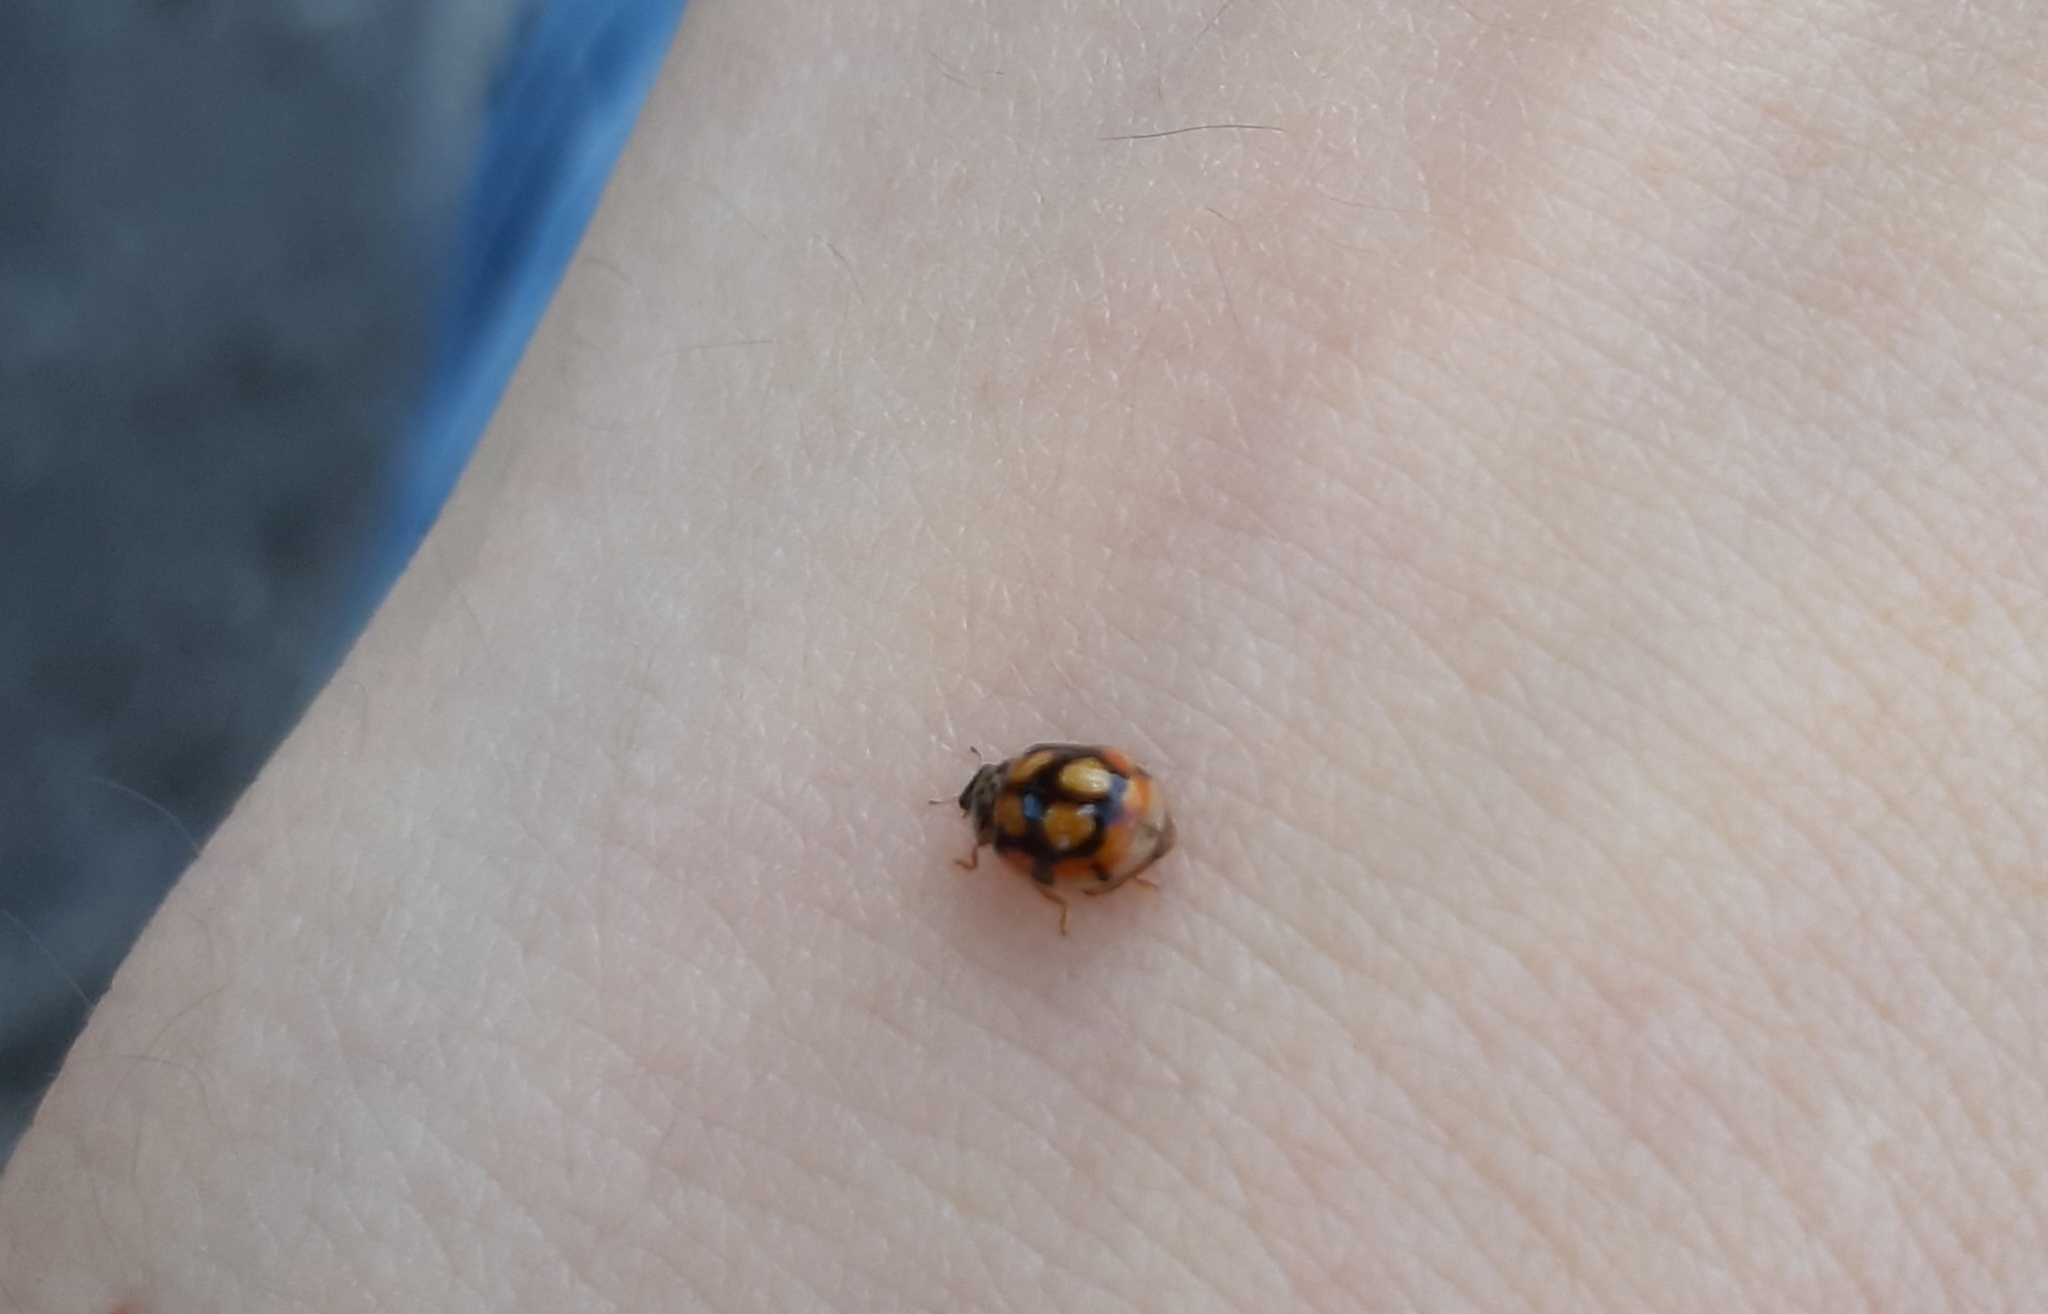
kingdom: Animalia
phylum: Arthropoda
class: Insecta
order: Coleoptera
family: Coccinellidae
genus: Adalia
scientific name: Adalia decempunctata
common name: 10-spot ladybird
